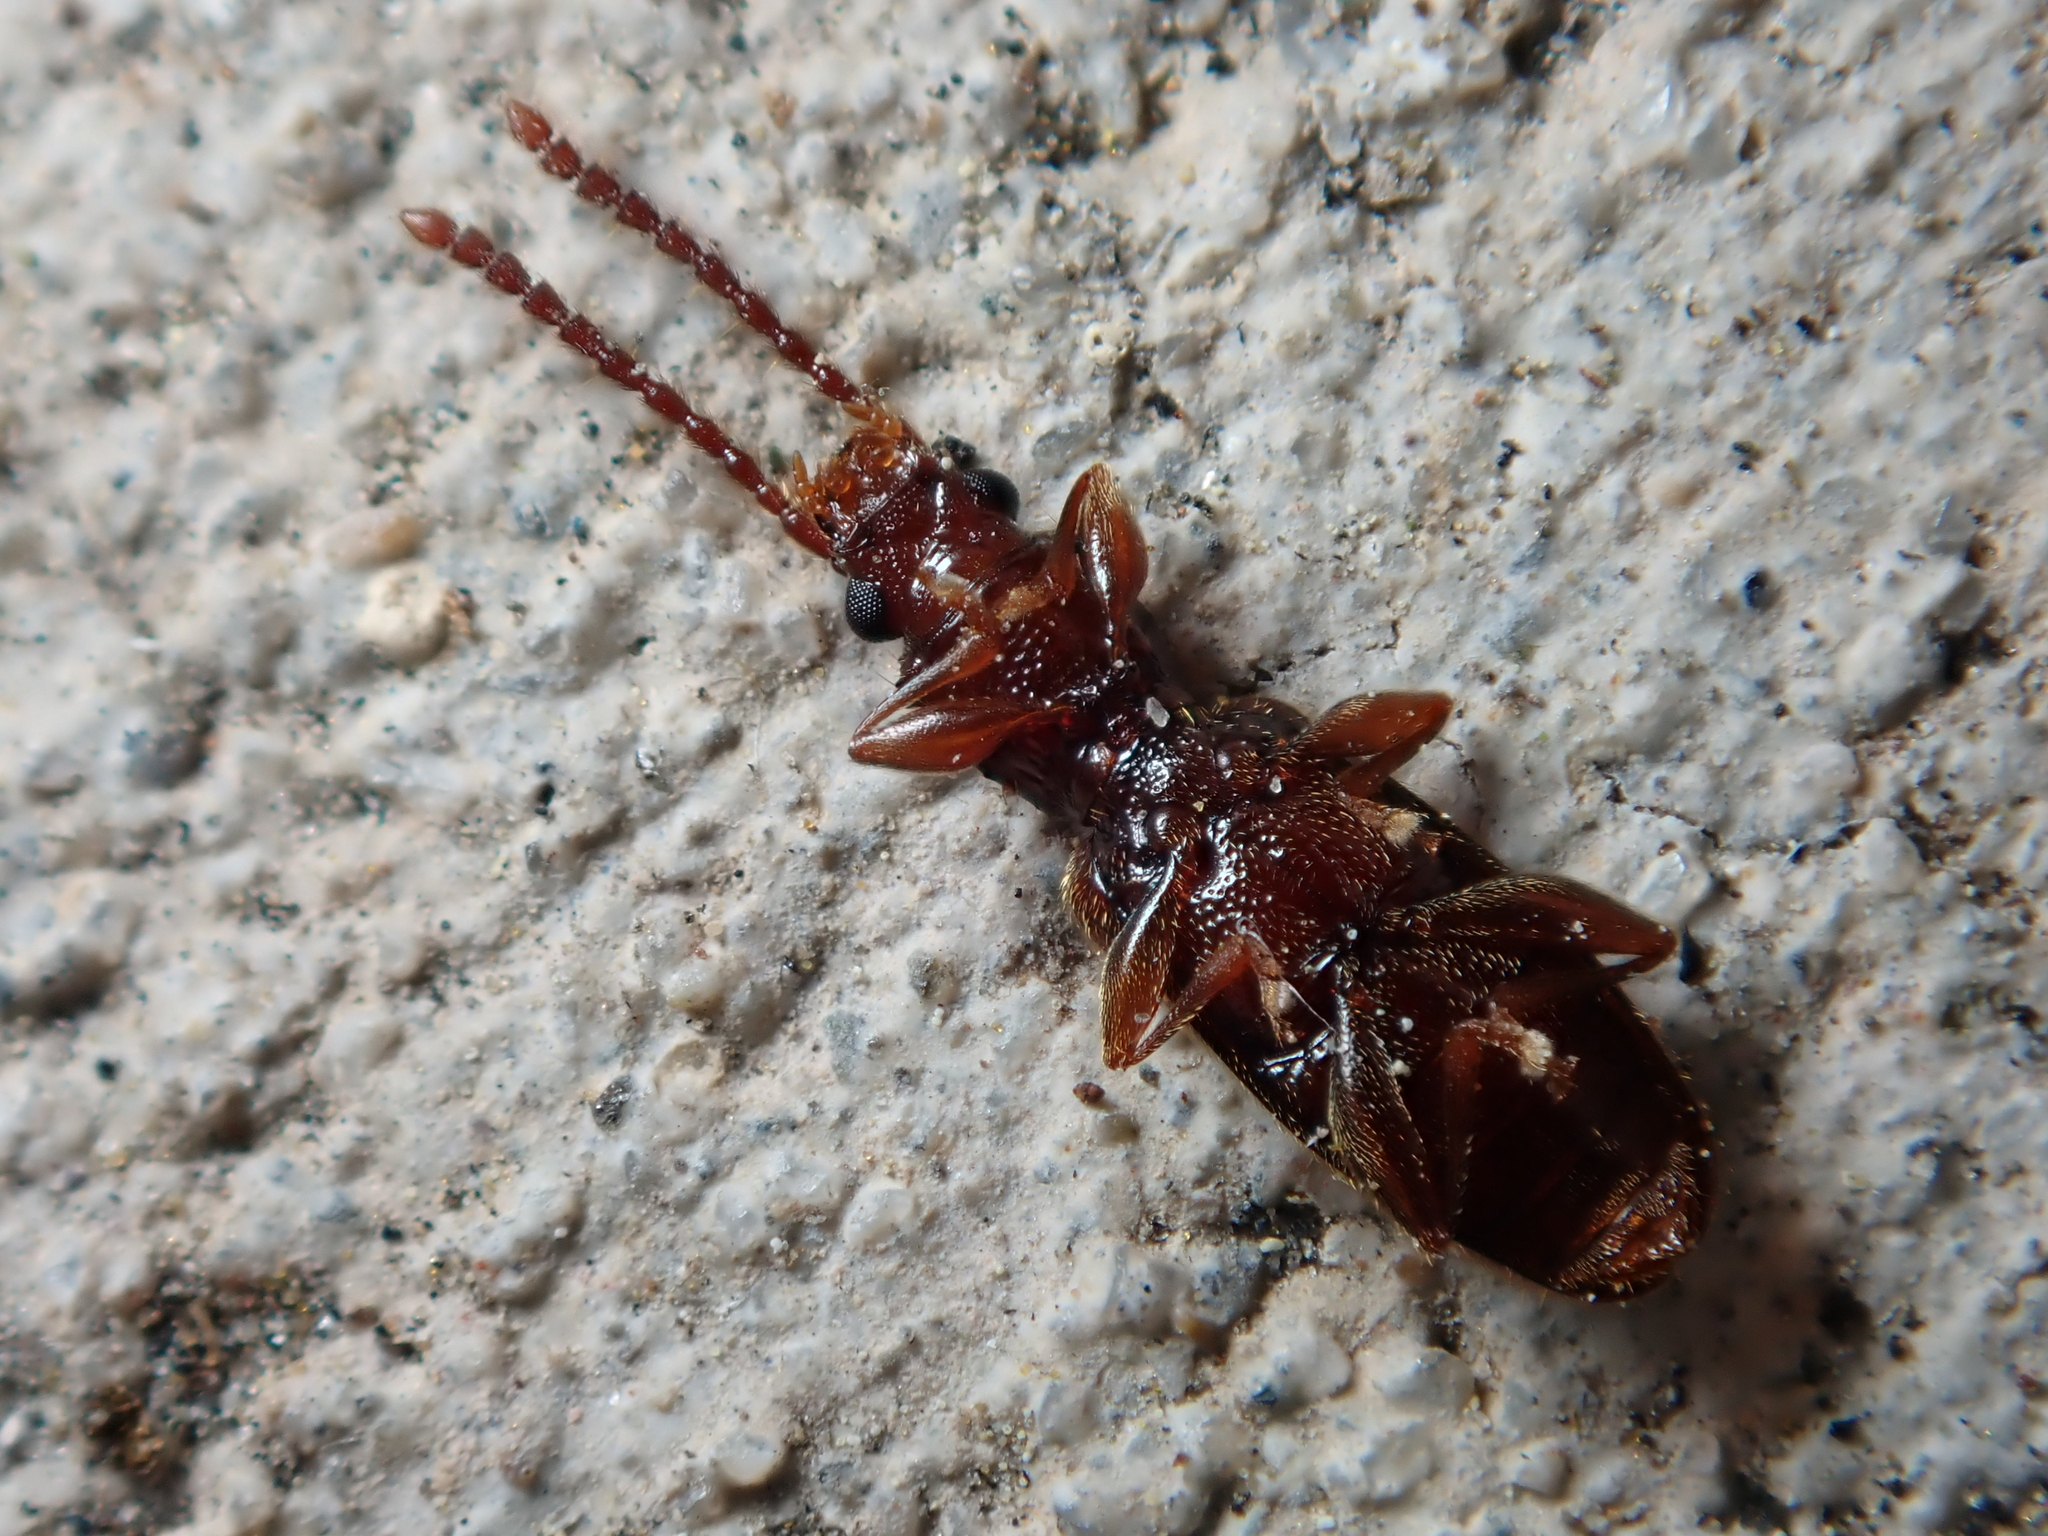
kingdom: Animalia
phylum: Arthropoda
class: Insecta
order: Coleoptera
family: Silvanidae
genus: Cryptamorpha
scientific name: Cryptamorpha brevicornis
